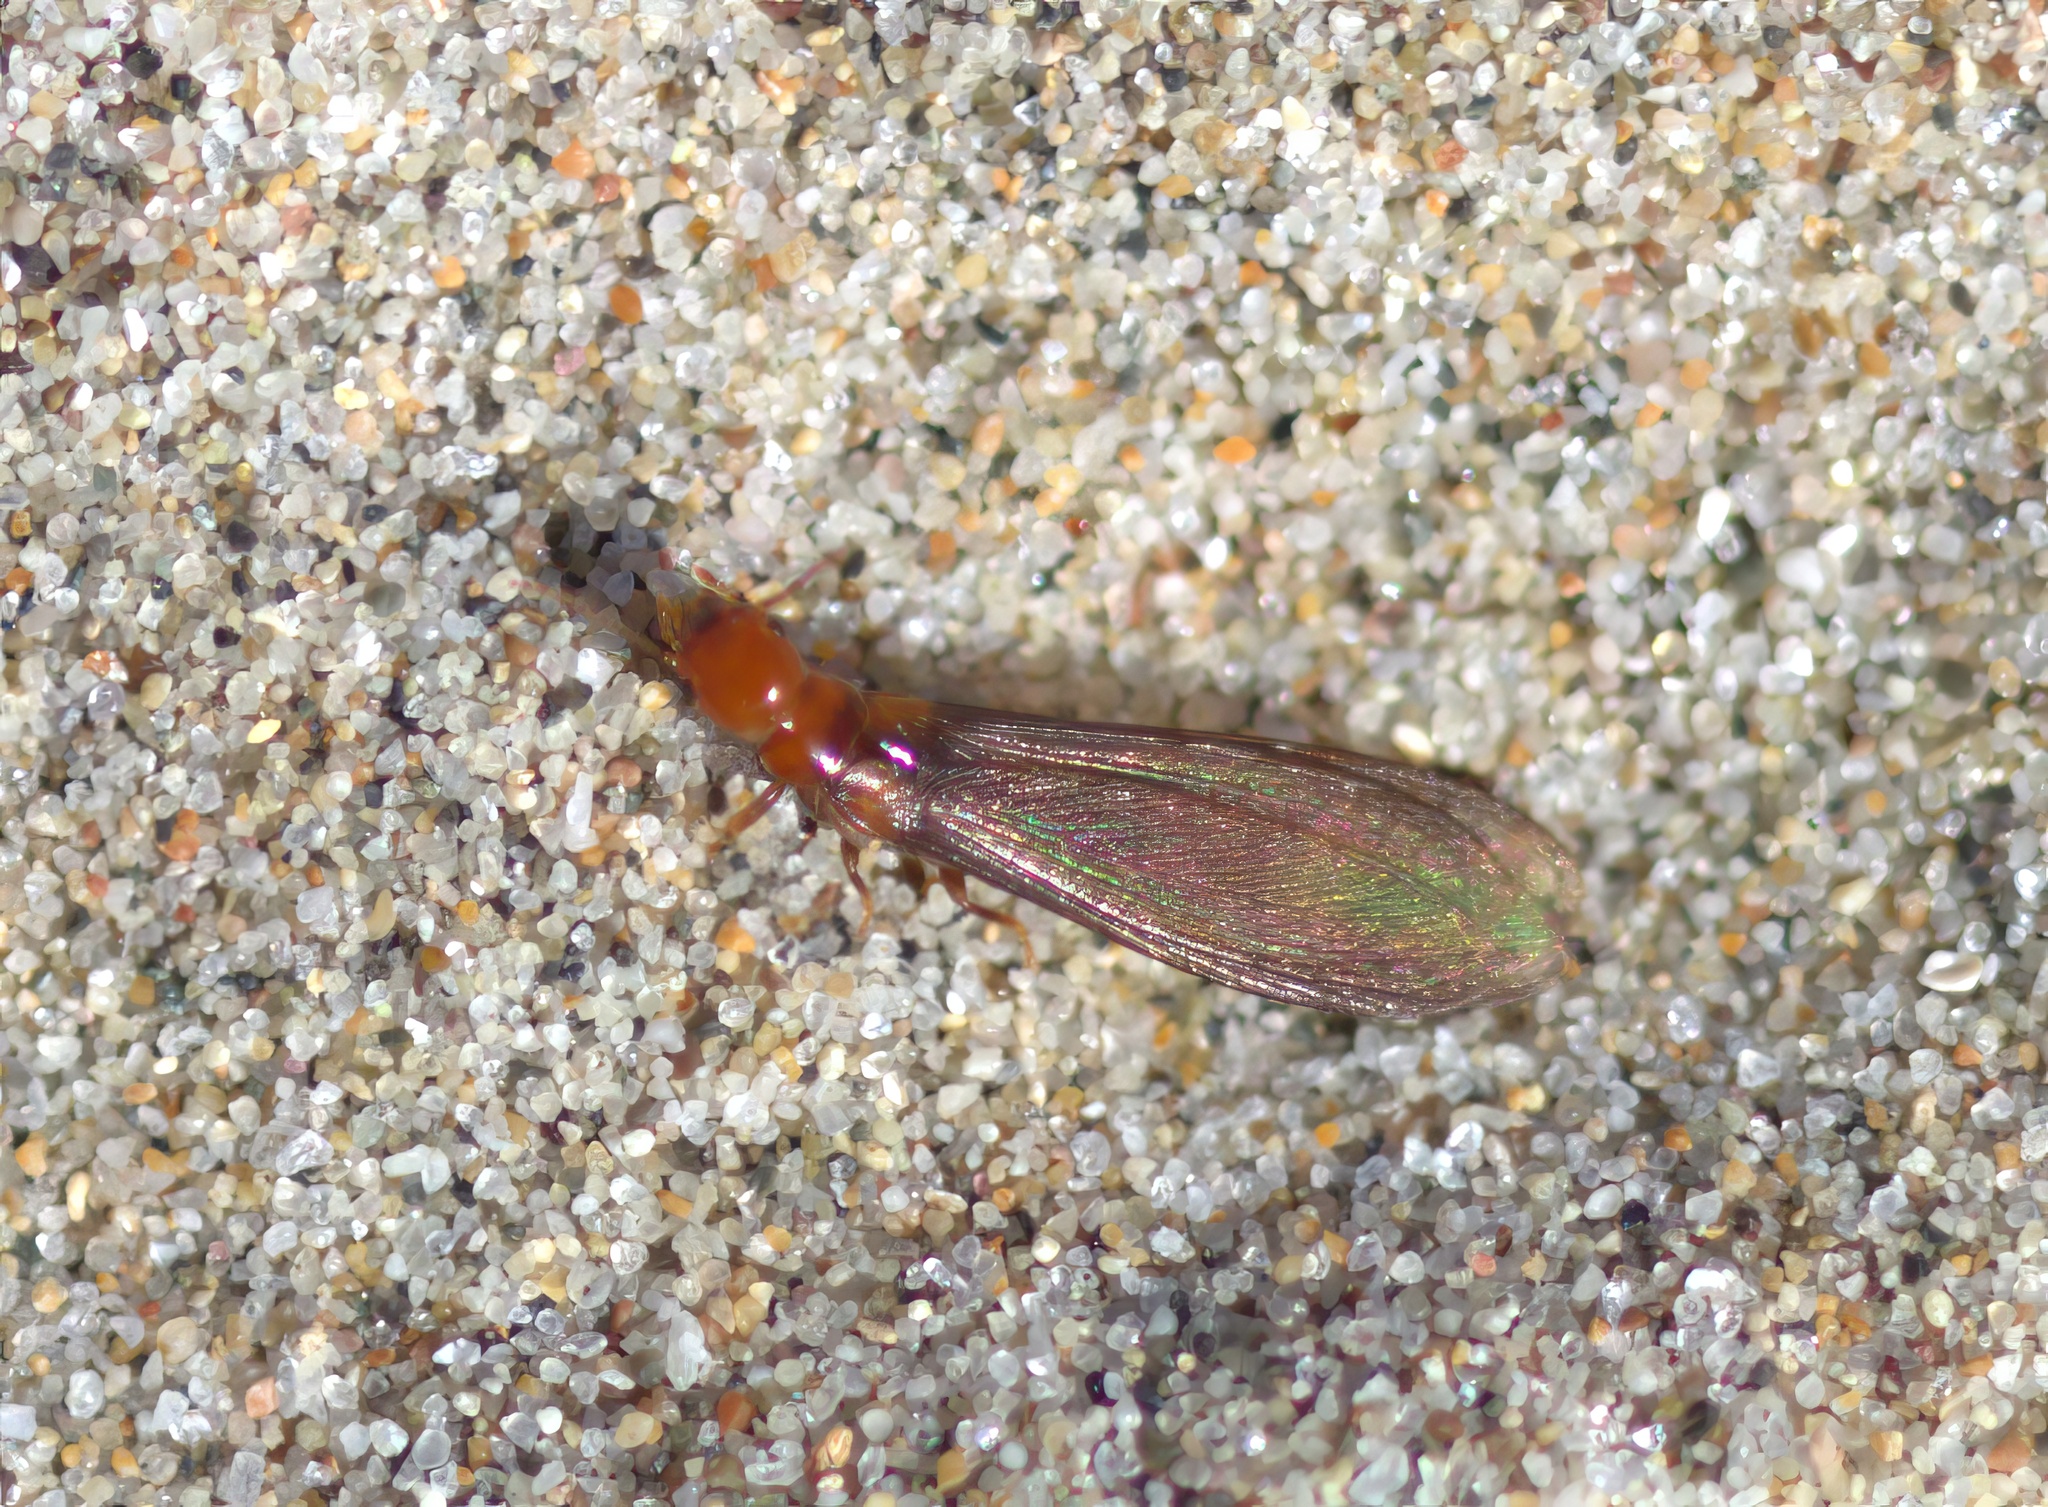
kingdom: Animalia
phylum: Arthropoda
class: Insecta
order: Blattodea
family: Kalotermitidae
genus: Incisitermes
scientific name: Incisitermes minor
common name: Termite
